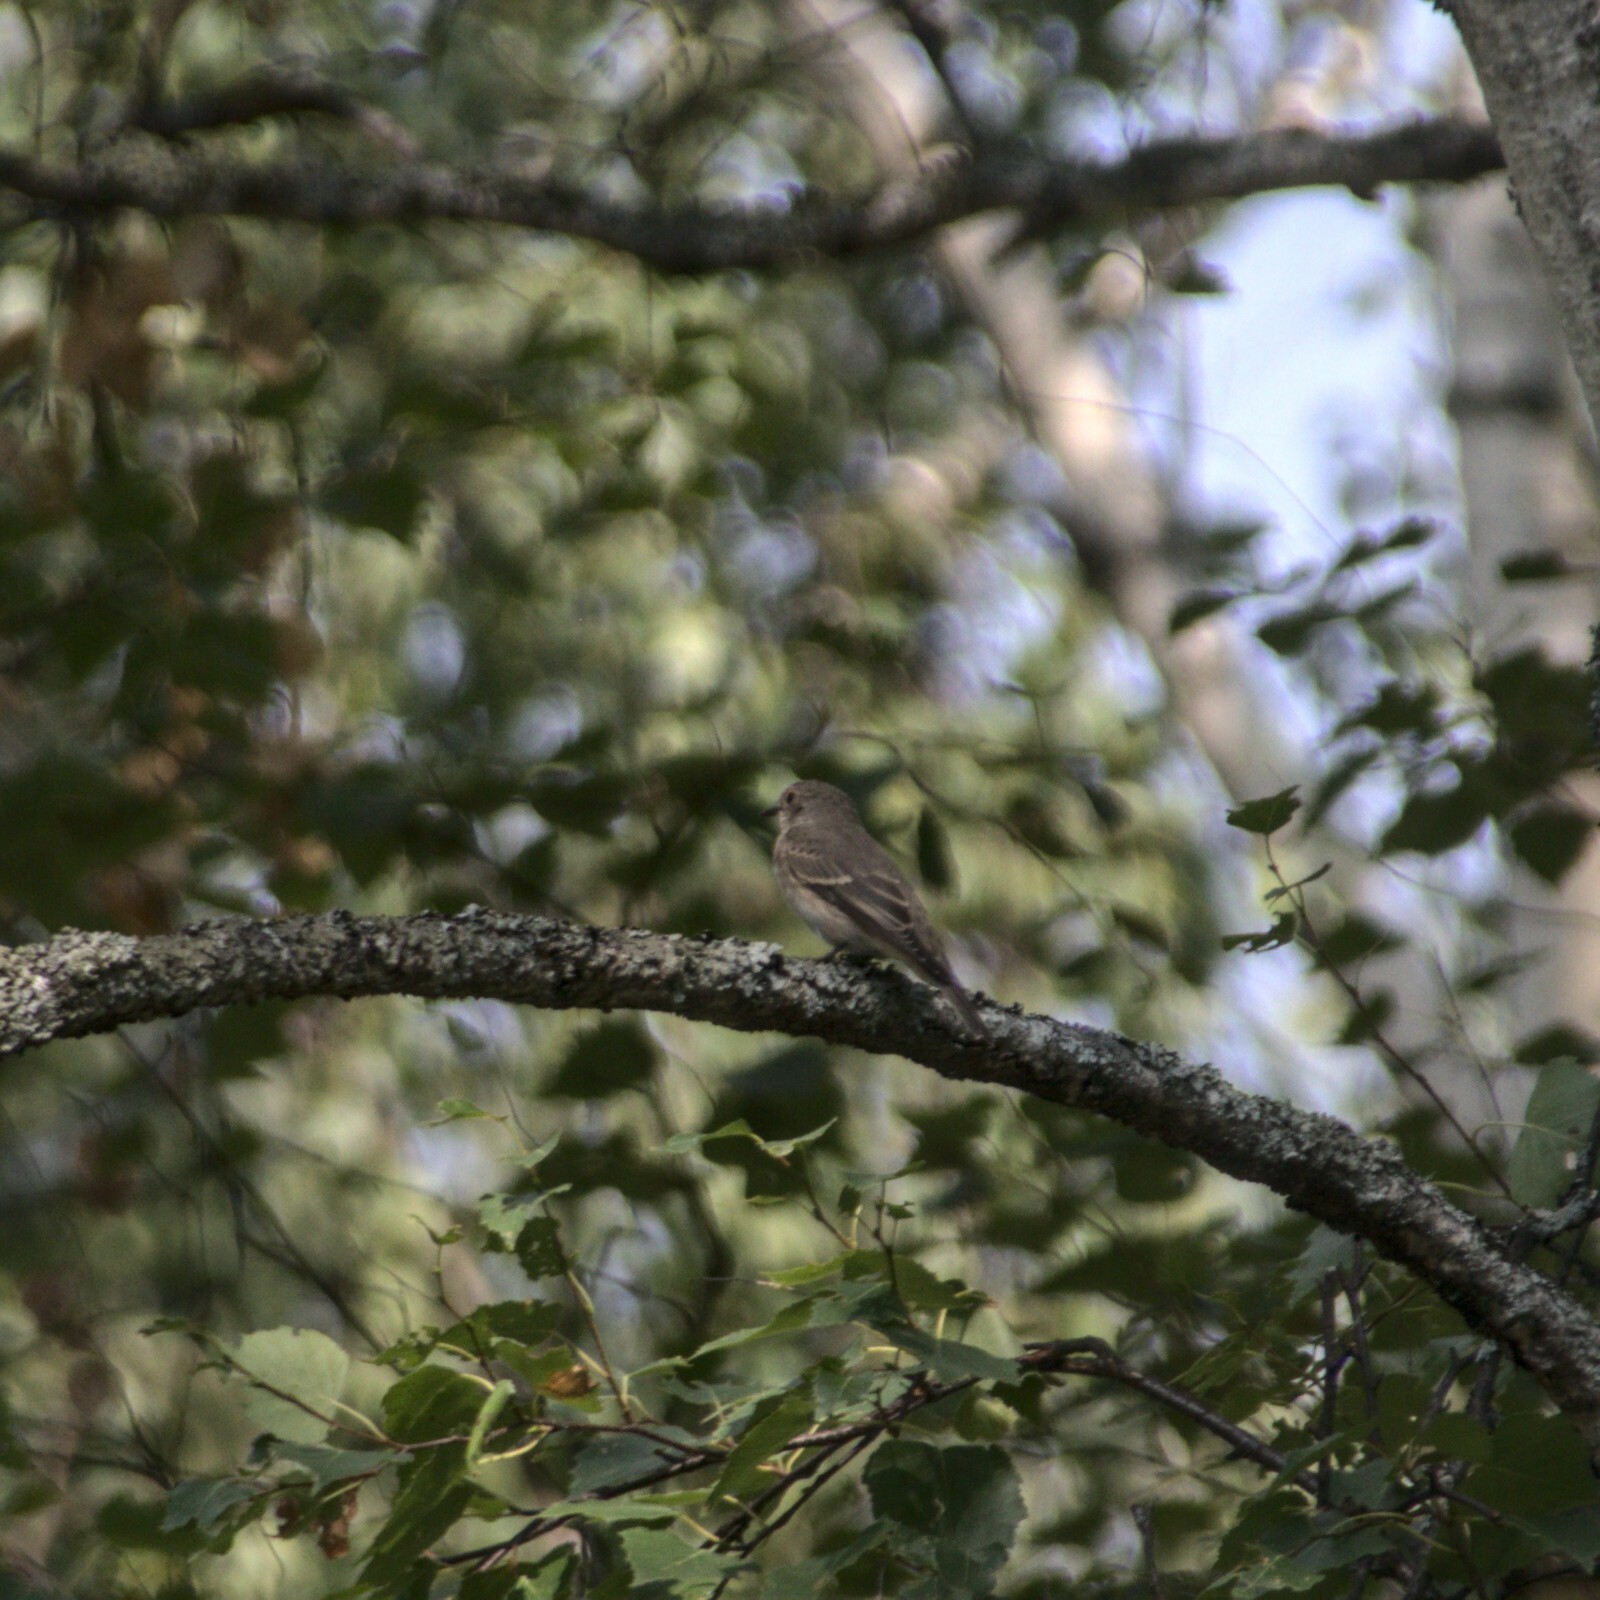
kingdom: Animalia
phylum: Chordata
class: Aves
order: Passeriformes
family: Muscicapidae
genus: Muscicapa
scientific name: Muscicapa striata
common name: Spotted flycatcher
